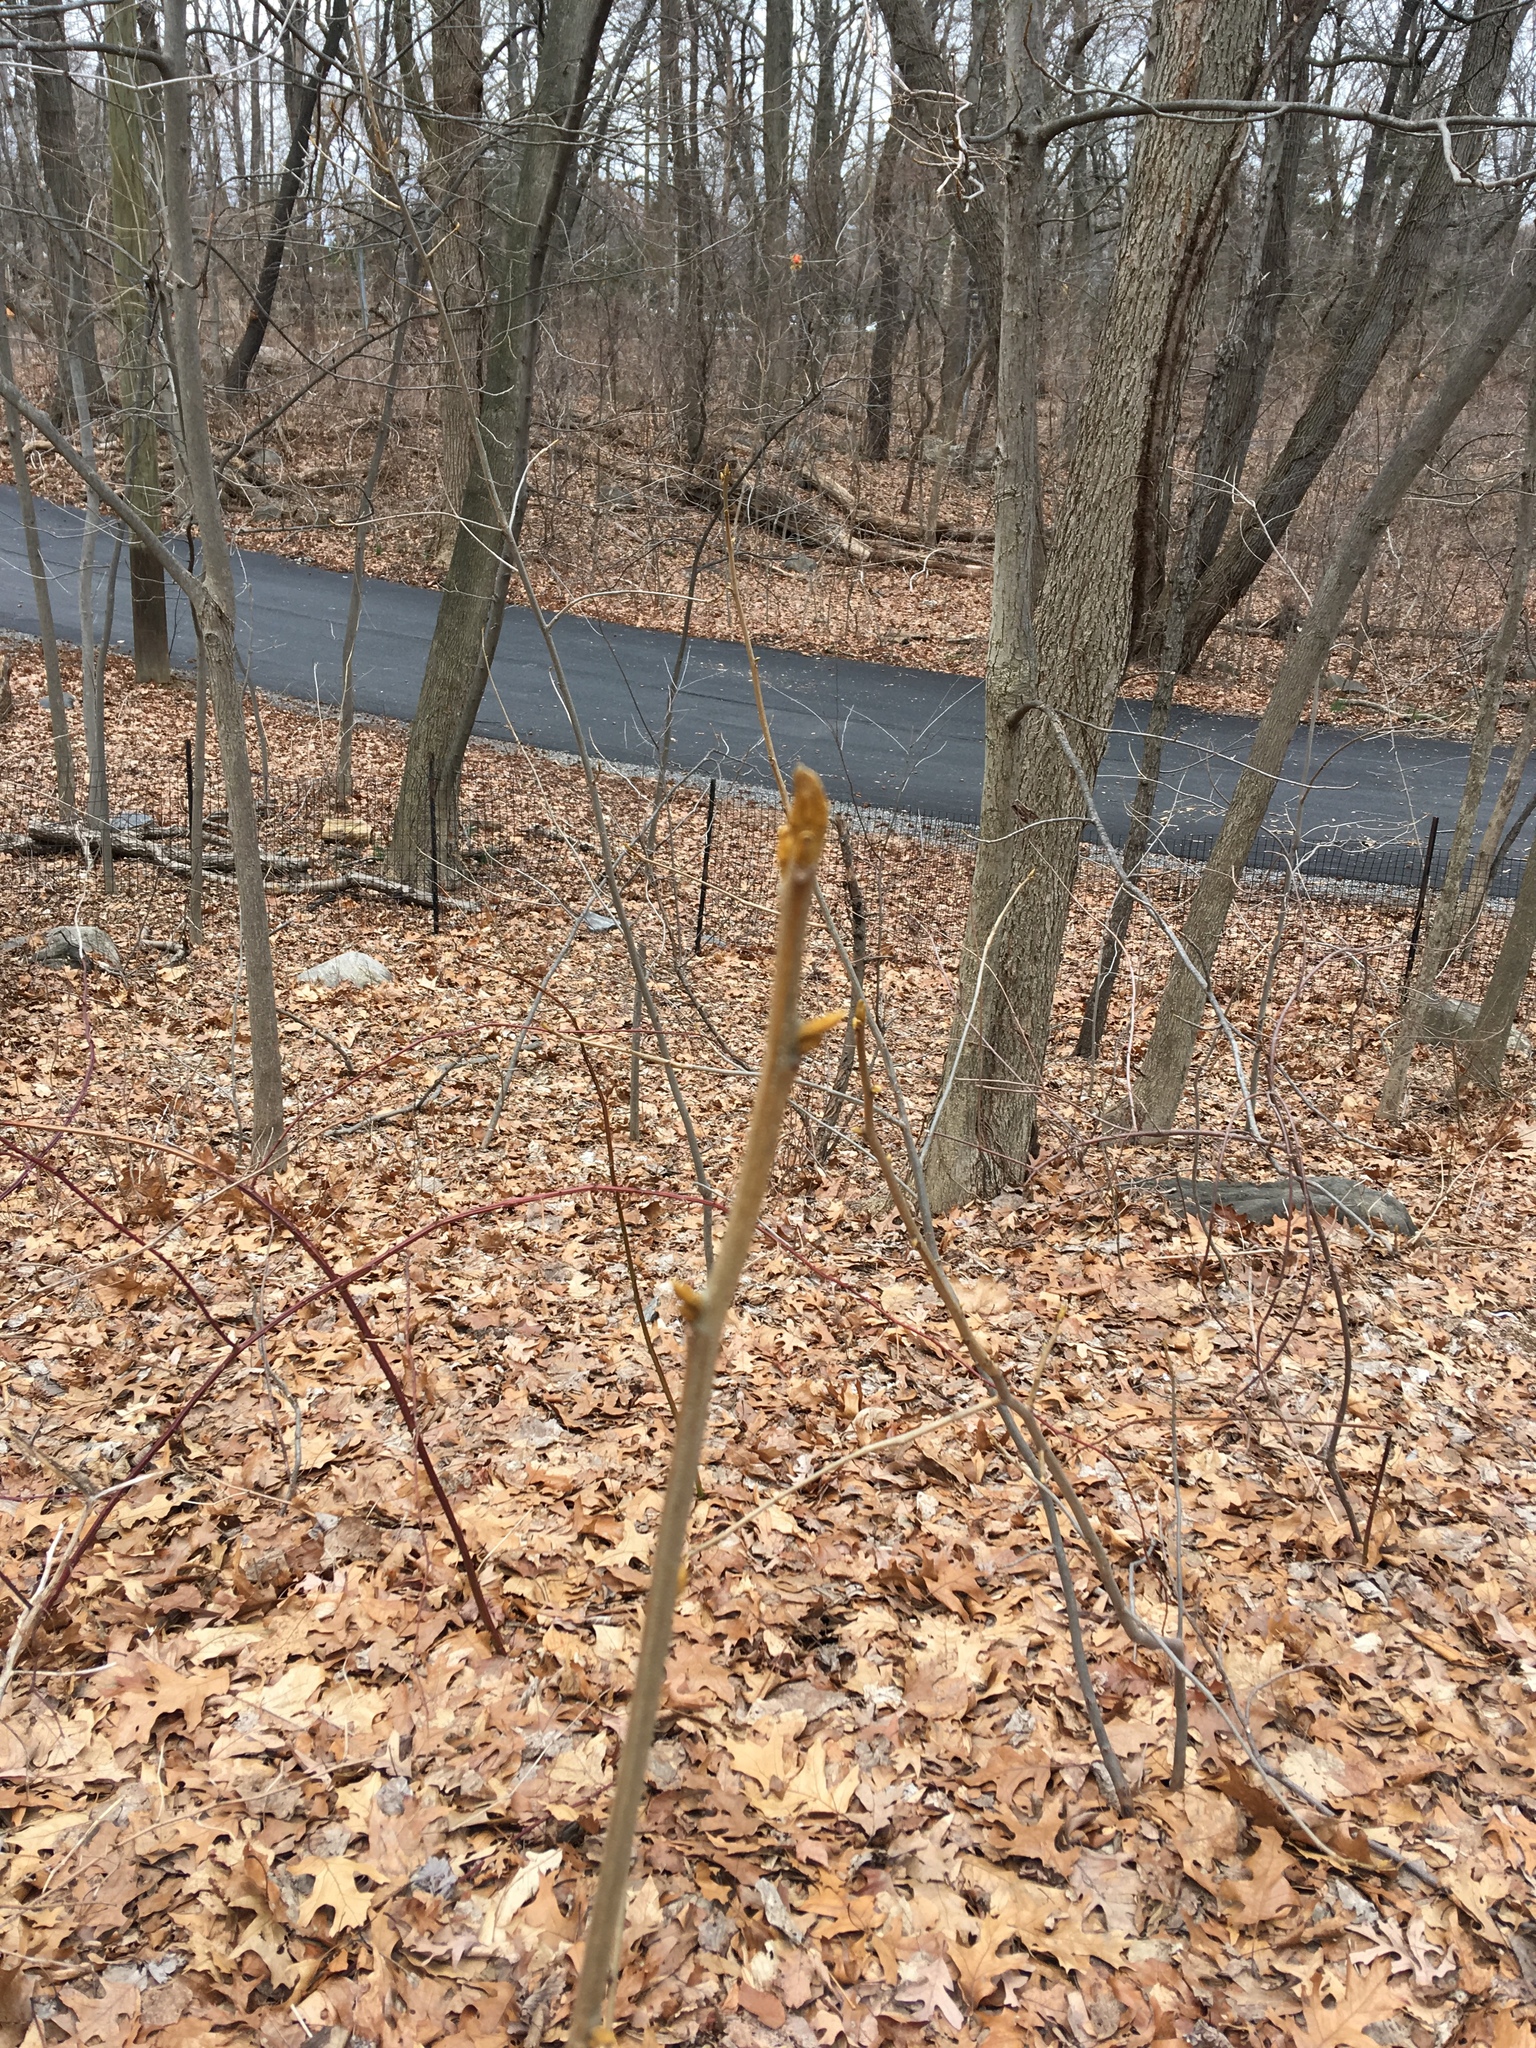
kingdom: Plantae
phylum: Tracheophyta
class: Magnoliopsida
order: Fagales
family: Juglandaceae
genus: Carya
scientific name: Carya cordiformis
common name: Bitternut hickory
